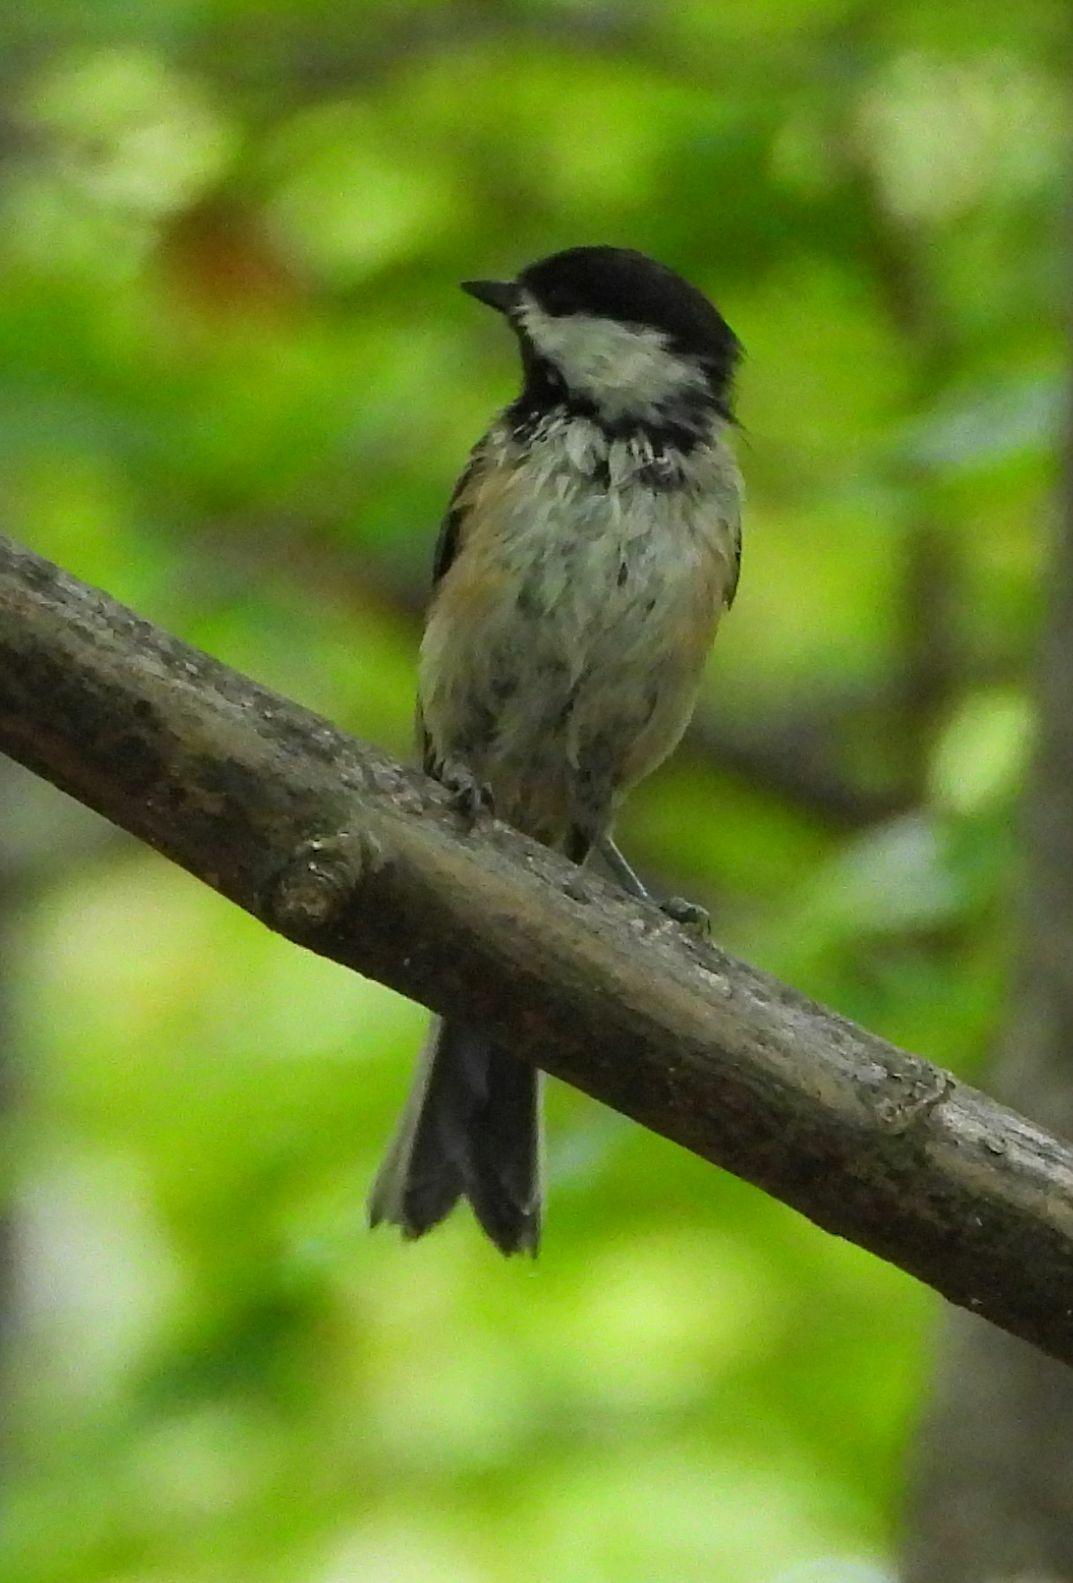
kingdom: Animalia
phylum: Chordata
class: Aves
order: Passeriformes
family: Paridae
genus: Poecile
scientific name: Poecile atricapillus
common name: Black-capped chickadee
